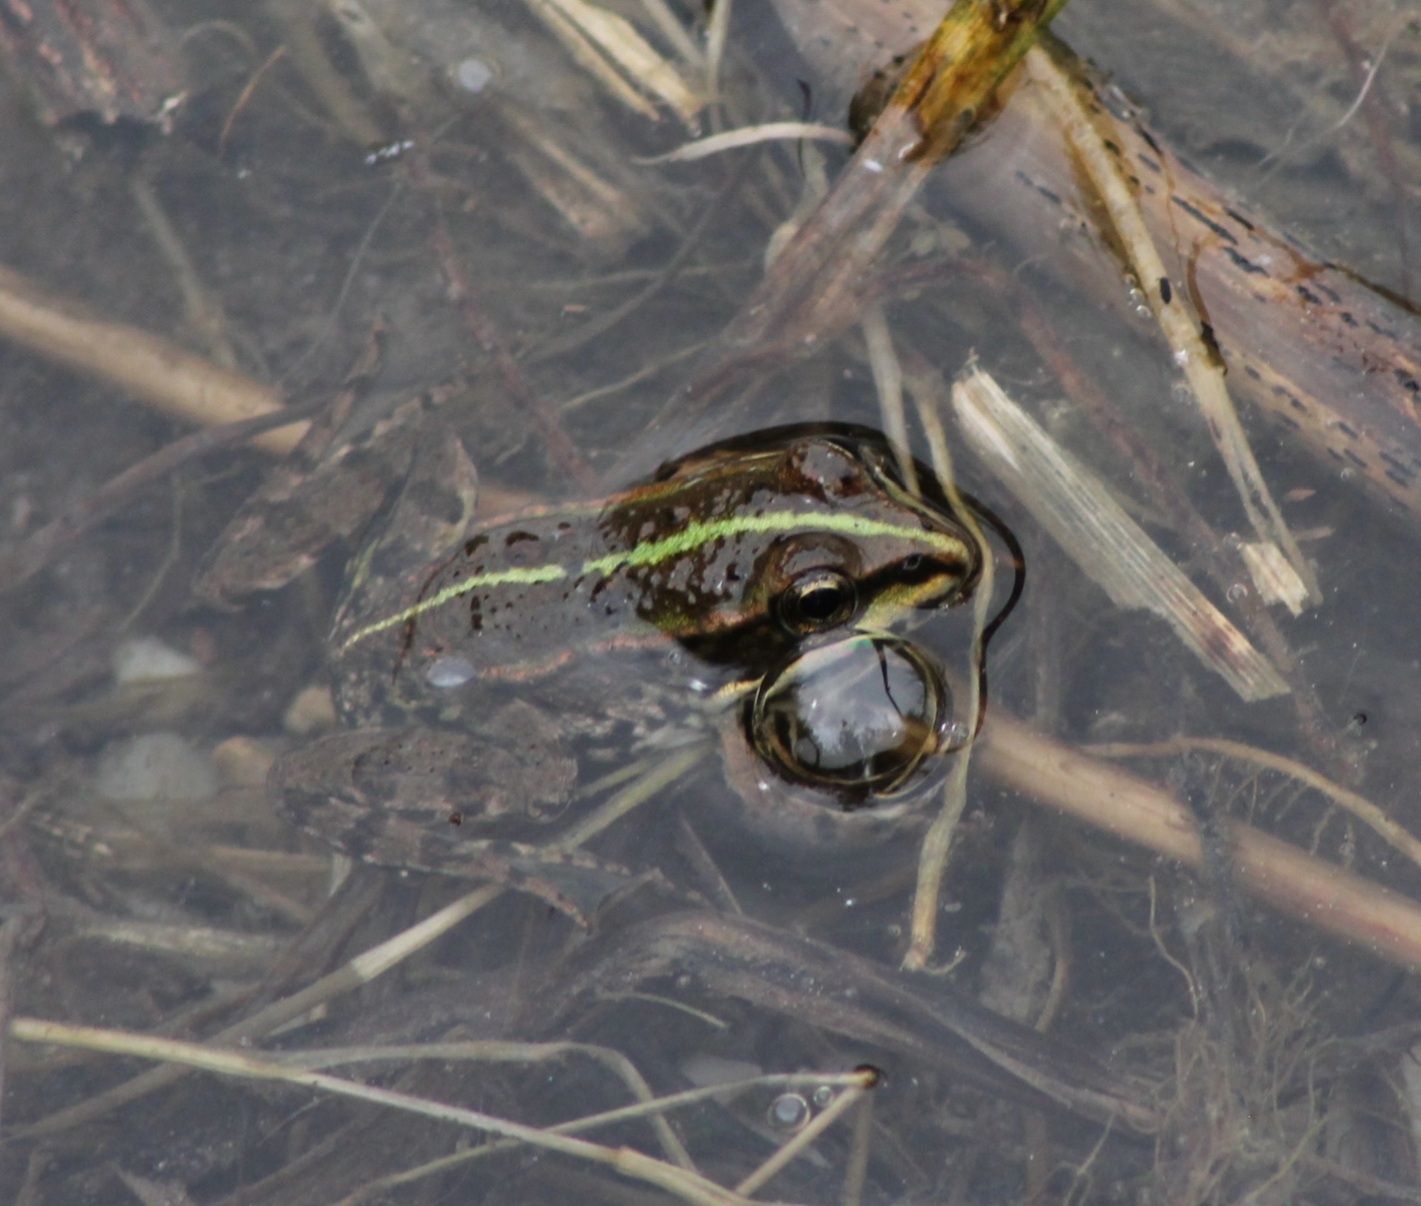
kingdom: Animalia
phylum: Chordata
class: Amphibia
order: Anura
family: Ranidae
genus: Pelophylax
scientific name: Pelophylax
